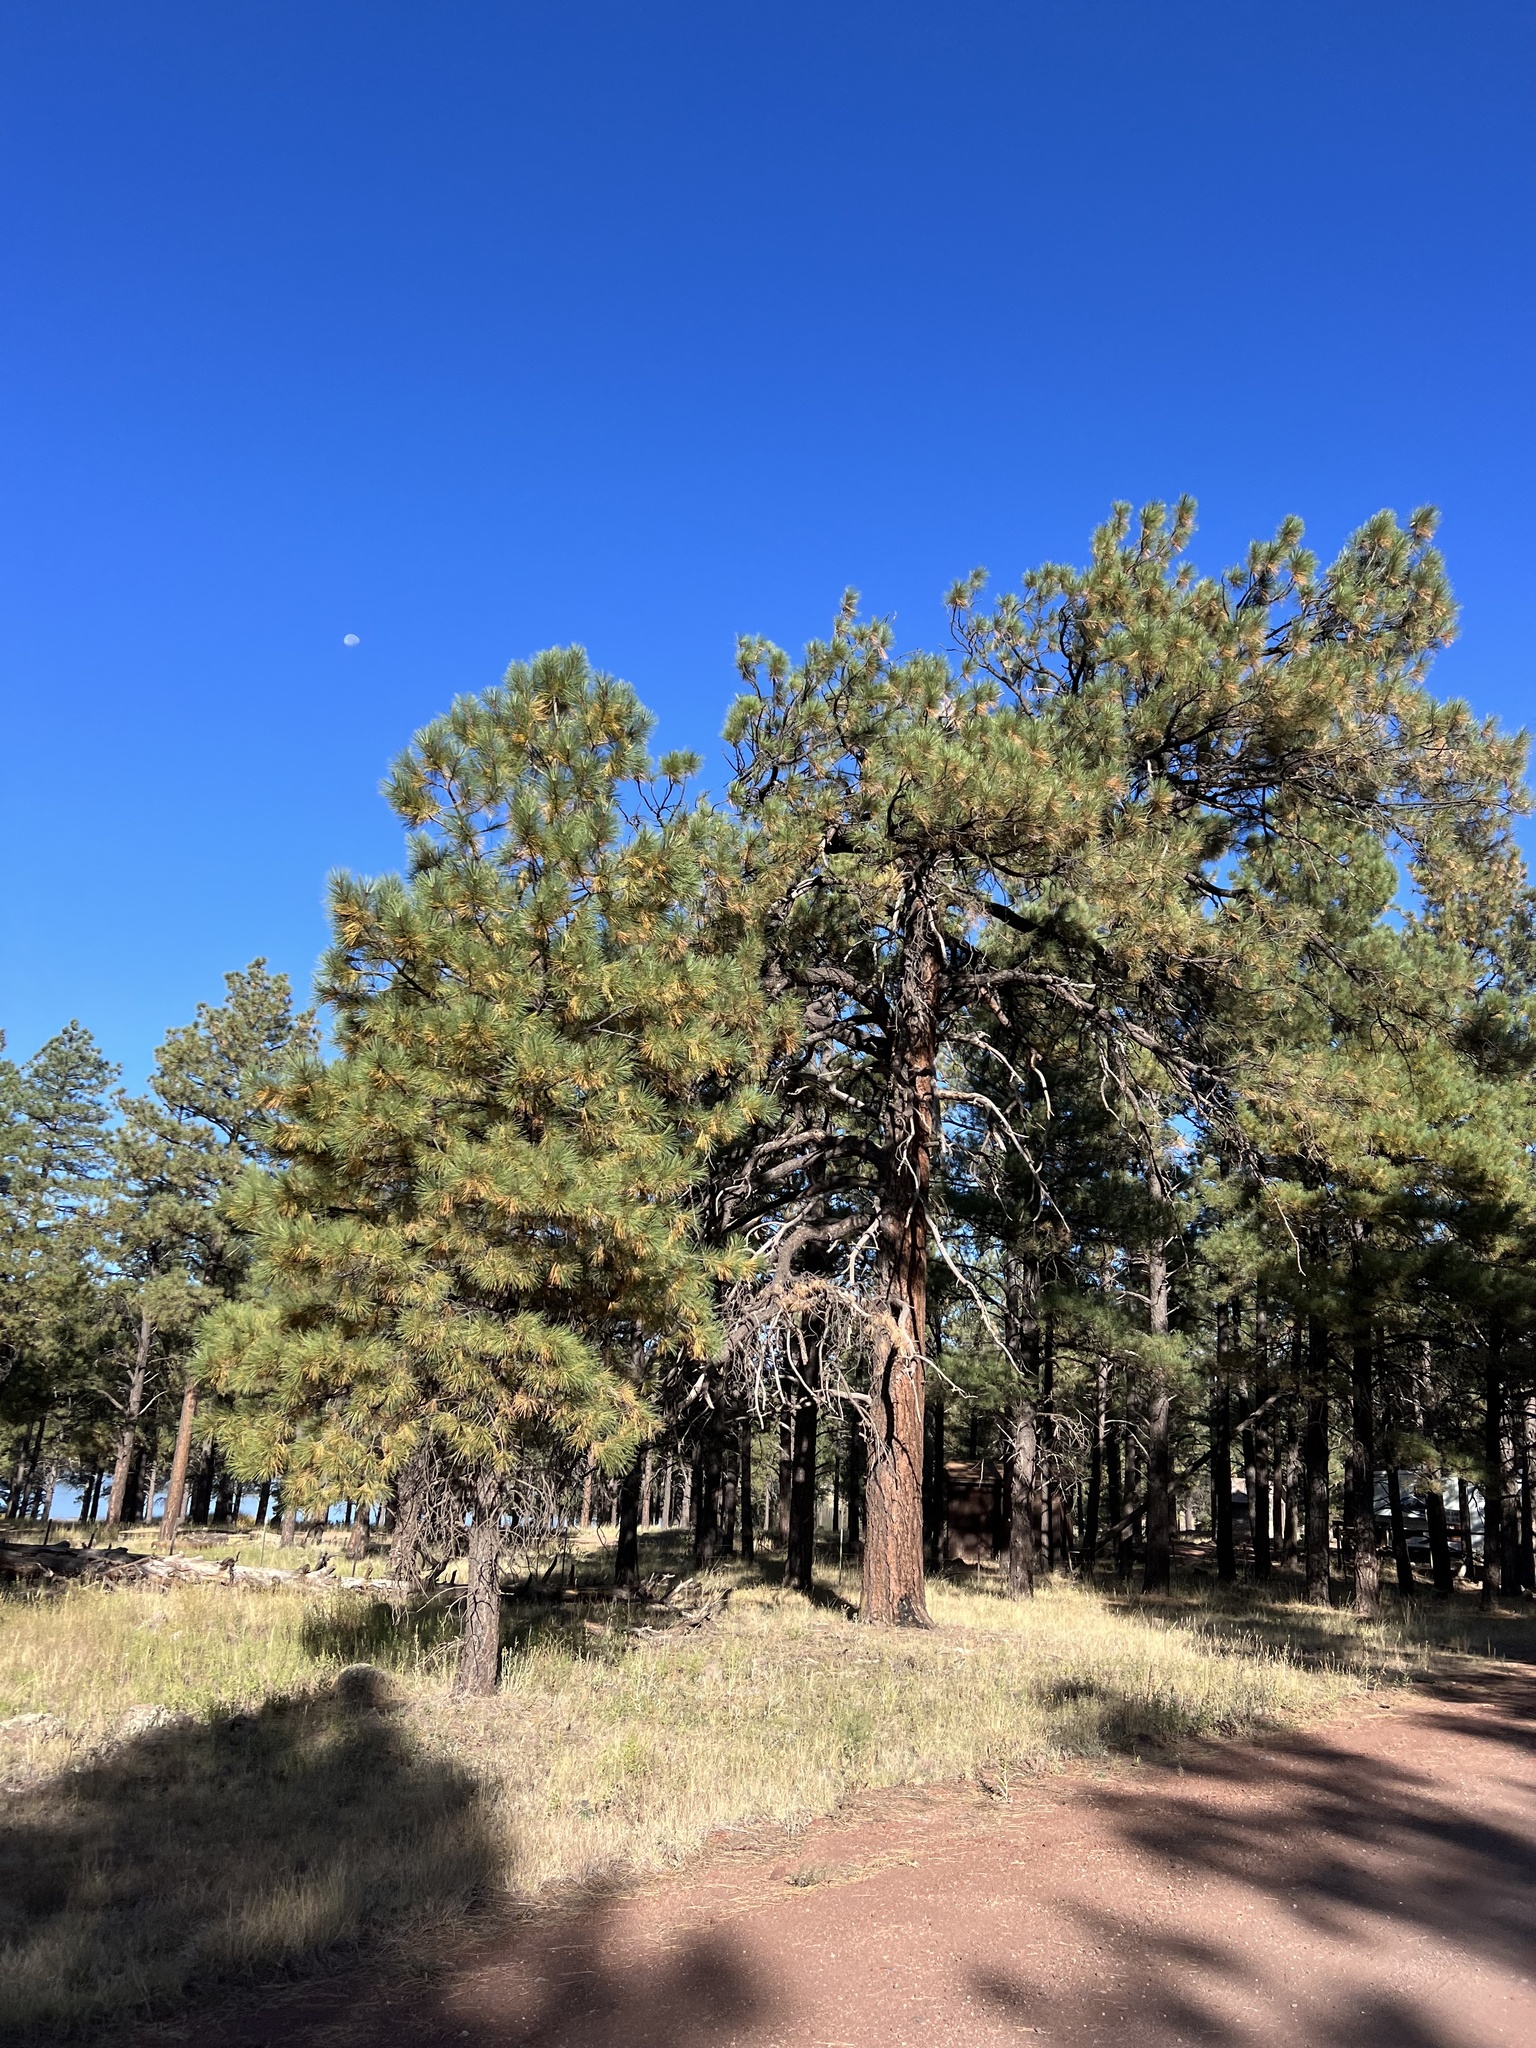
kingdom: Plantae
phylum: Tracheophyta
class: Pinopsida
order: Pinales
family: Pinaceae
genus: Pinus
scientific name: Pinus ponderosa
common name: Western yellow-pine
